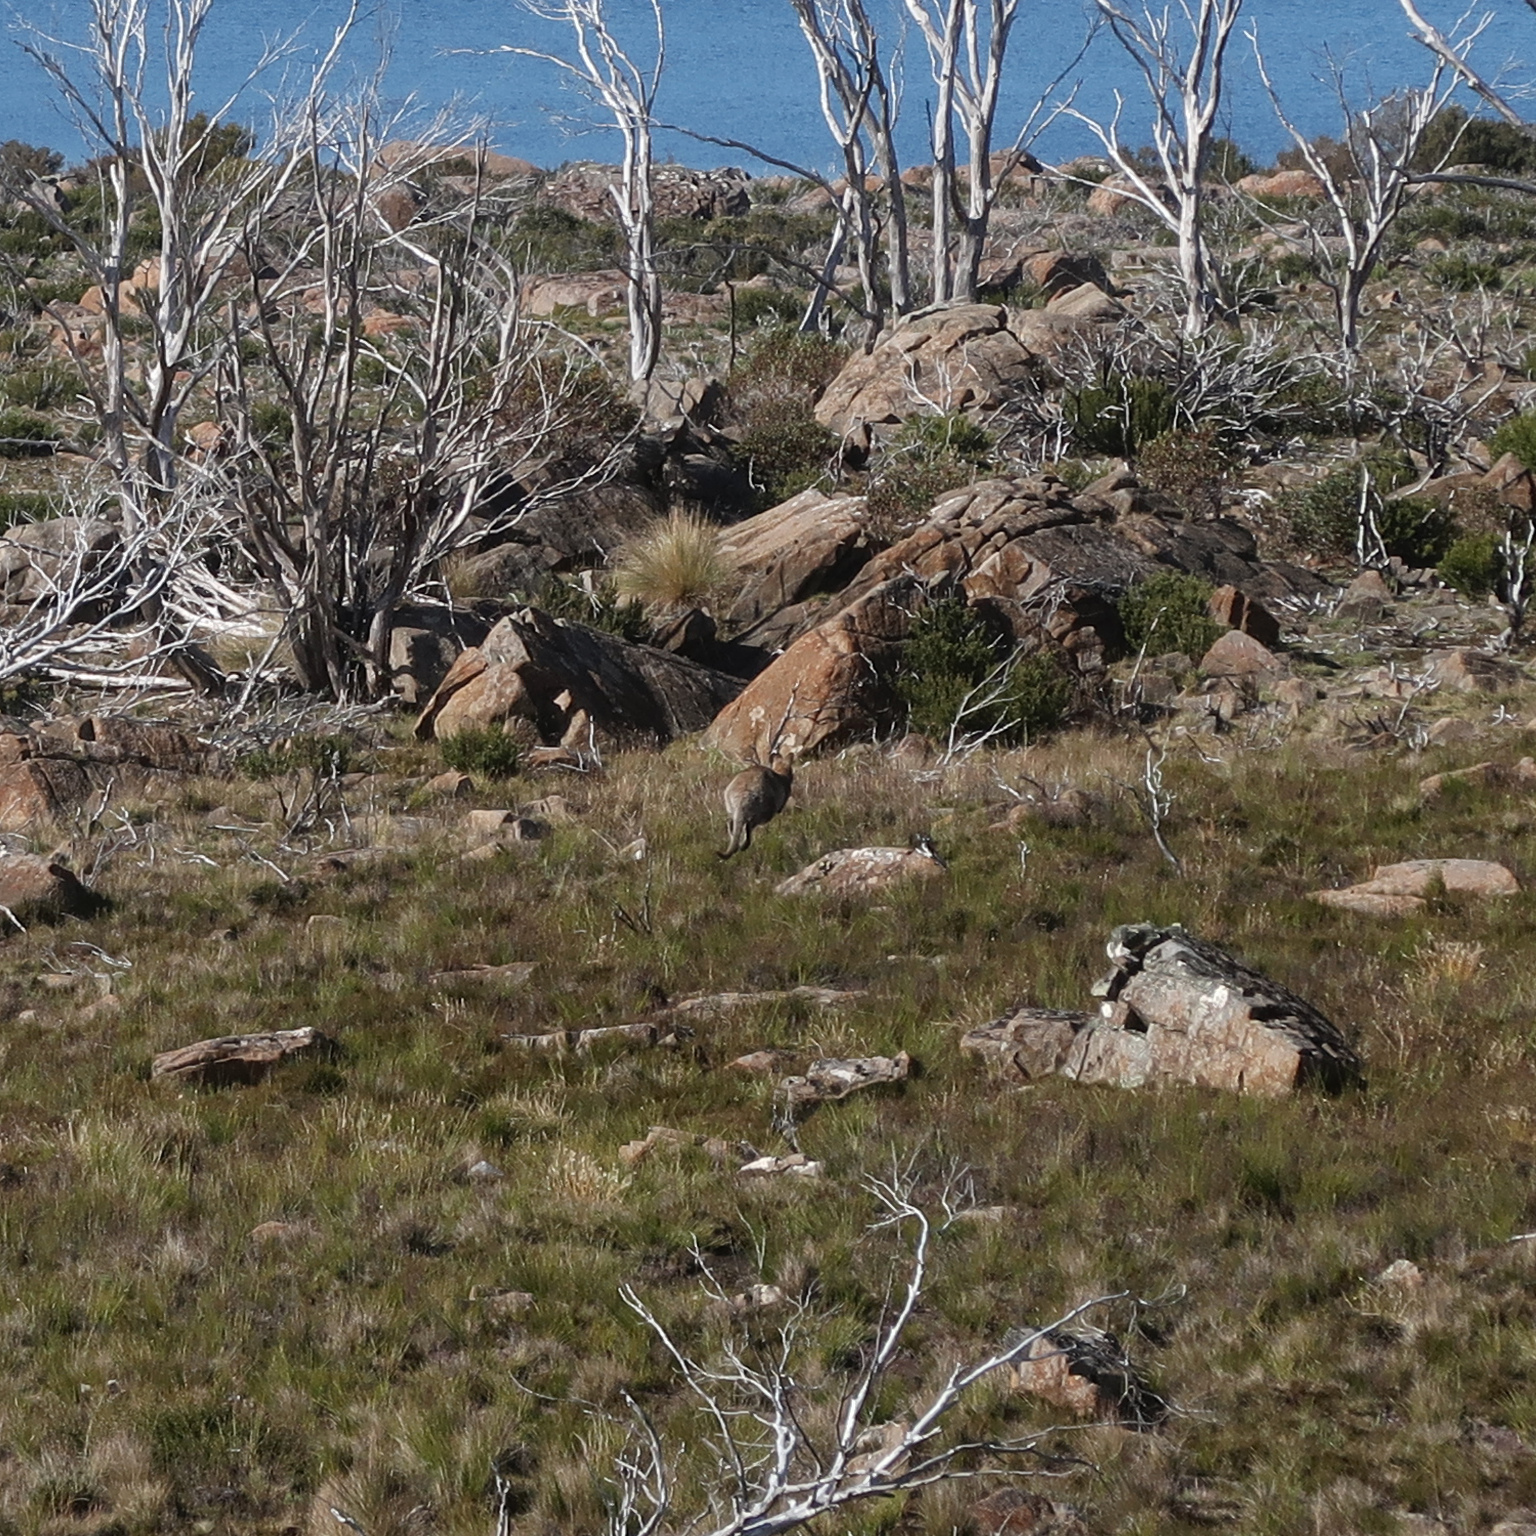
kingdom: Animalia
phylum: Chordata
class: Mammalia
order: Diprotodontia
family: Macropodidae
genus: Notamacropus
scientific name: Notamacropus rufogriseus
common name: Red-necked wallaby
